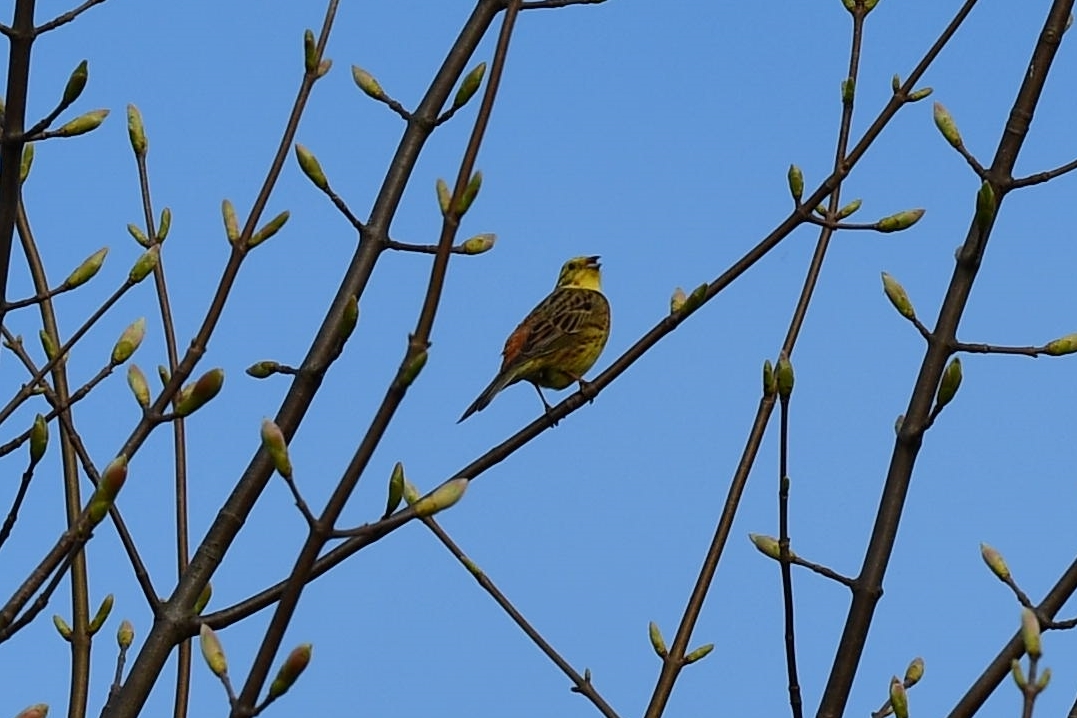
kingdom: Animalia
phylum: Chordata
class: Aves
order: Passeriformes
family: Emberizidae
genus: Emberiza
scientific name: Emberiza citrinella
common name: Yellowhammer
